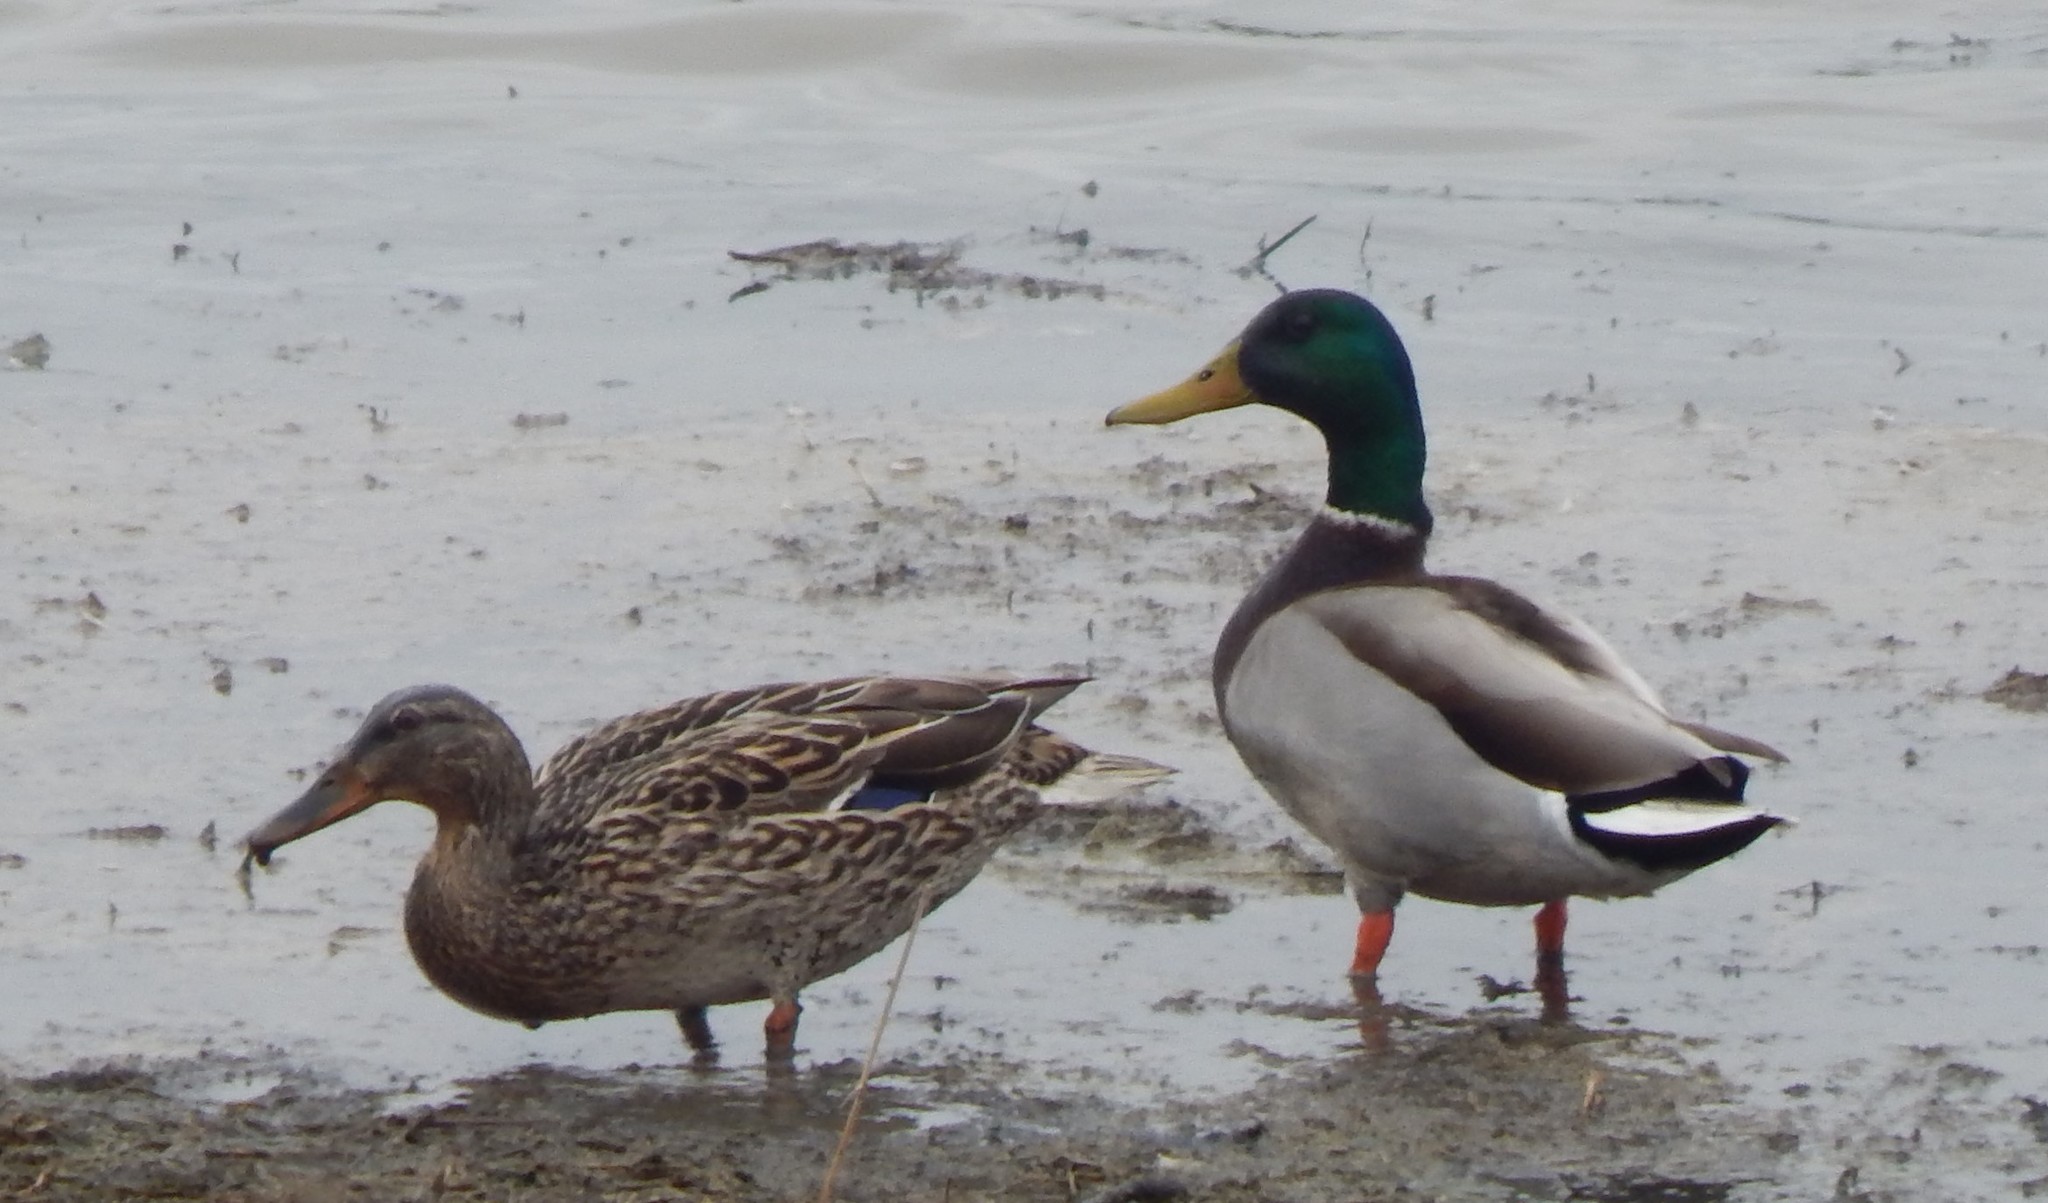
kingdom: Animalia
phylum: Chordata
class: Aves
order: Anseriformes
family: Anatidae
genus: Anas
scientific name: Anas platyrhynchos
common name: Mallard
